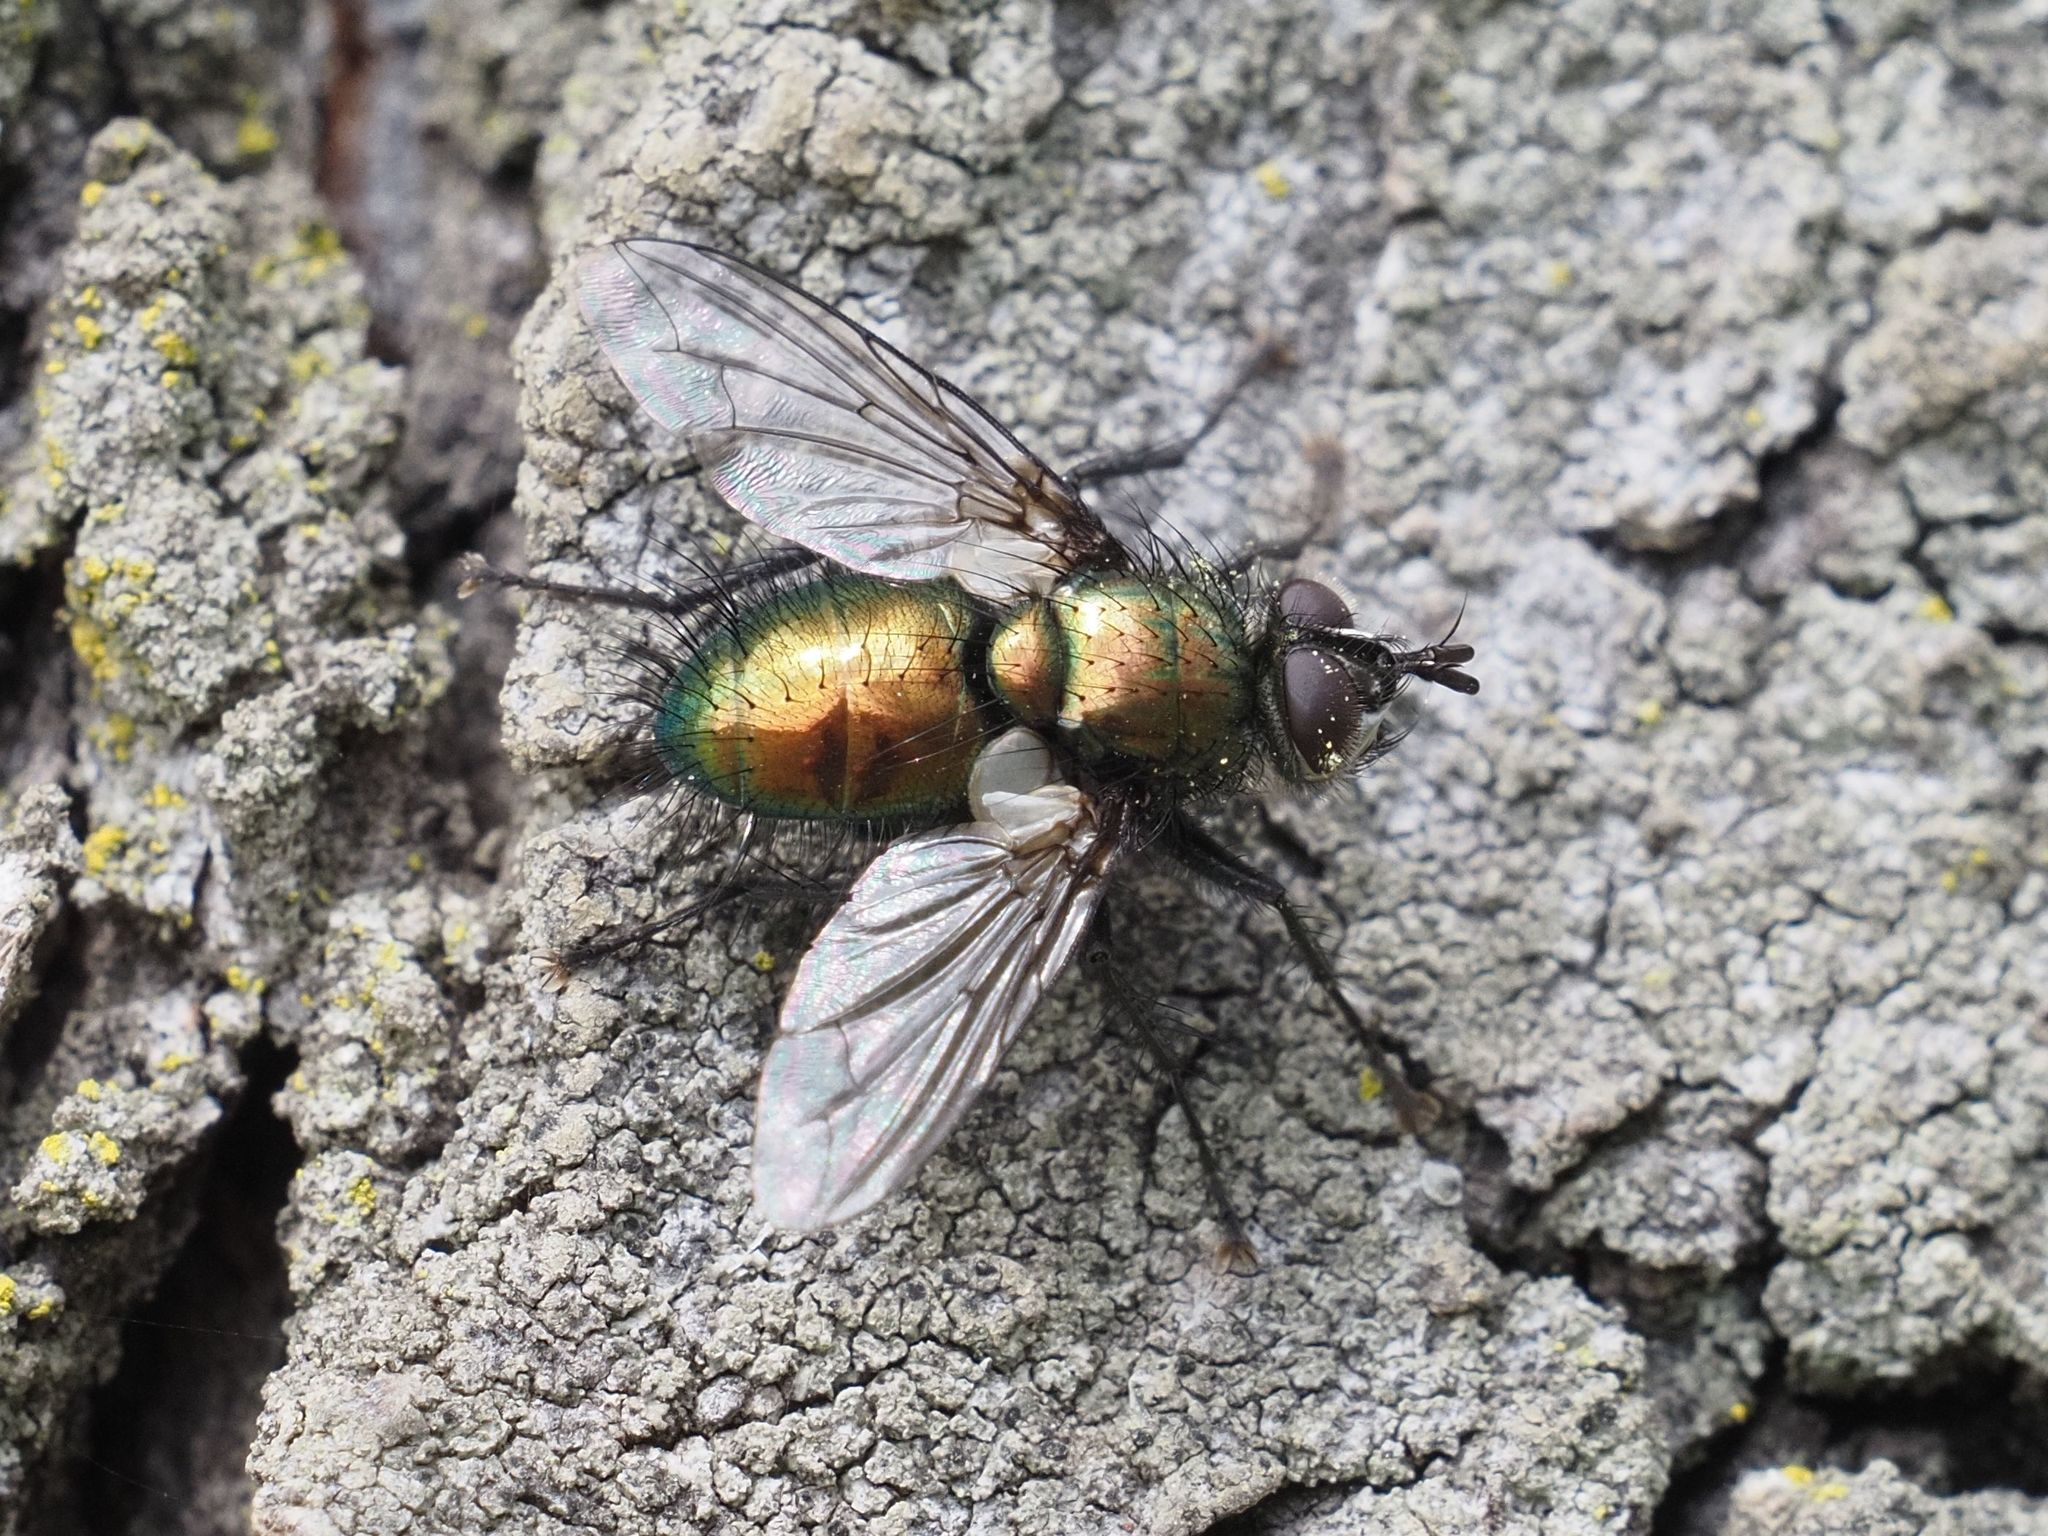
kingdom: Animalia
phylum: Arthropoda
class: Insecta
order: Diptera
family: Tachinidae
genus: Gymnocheta
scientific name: Gymnocheta viridis
